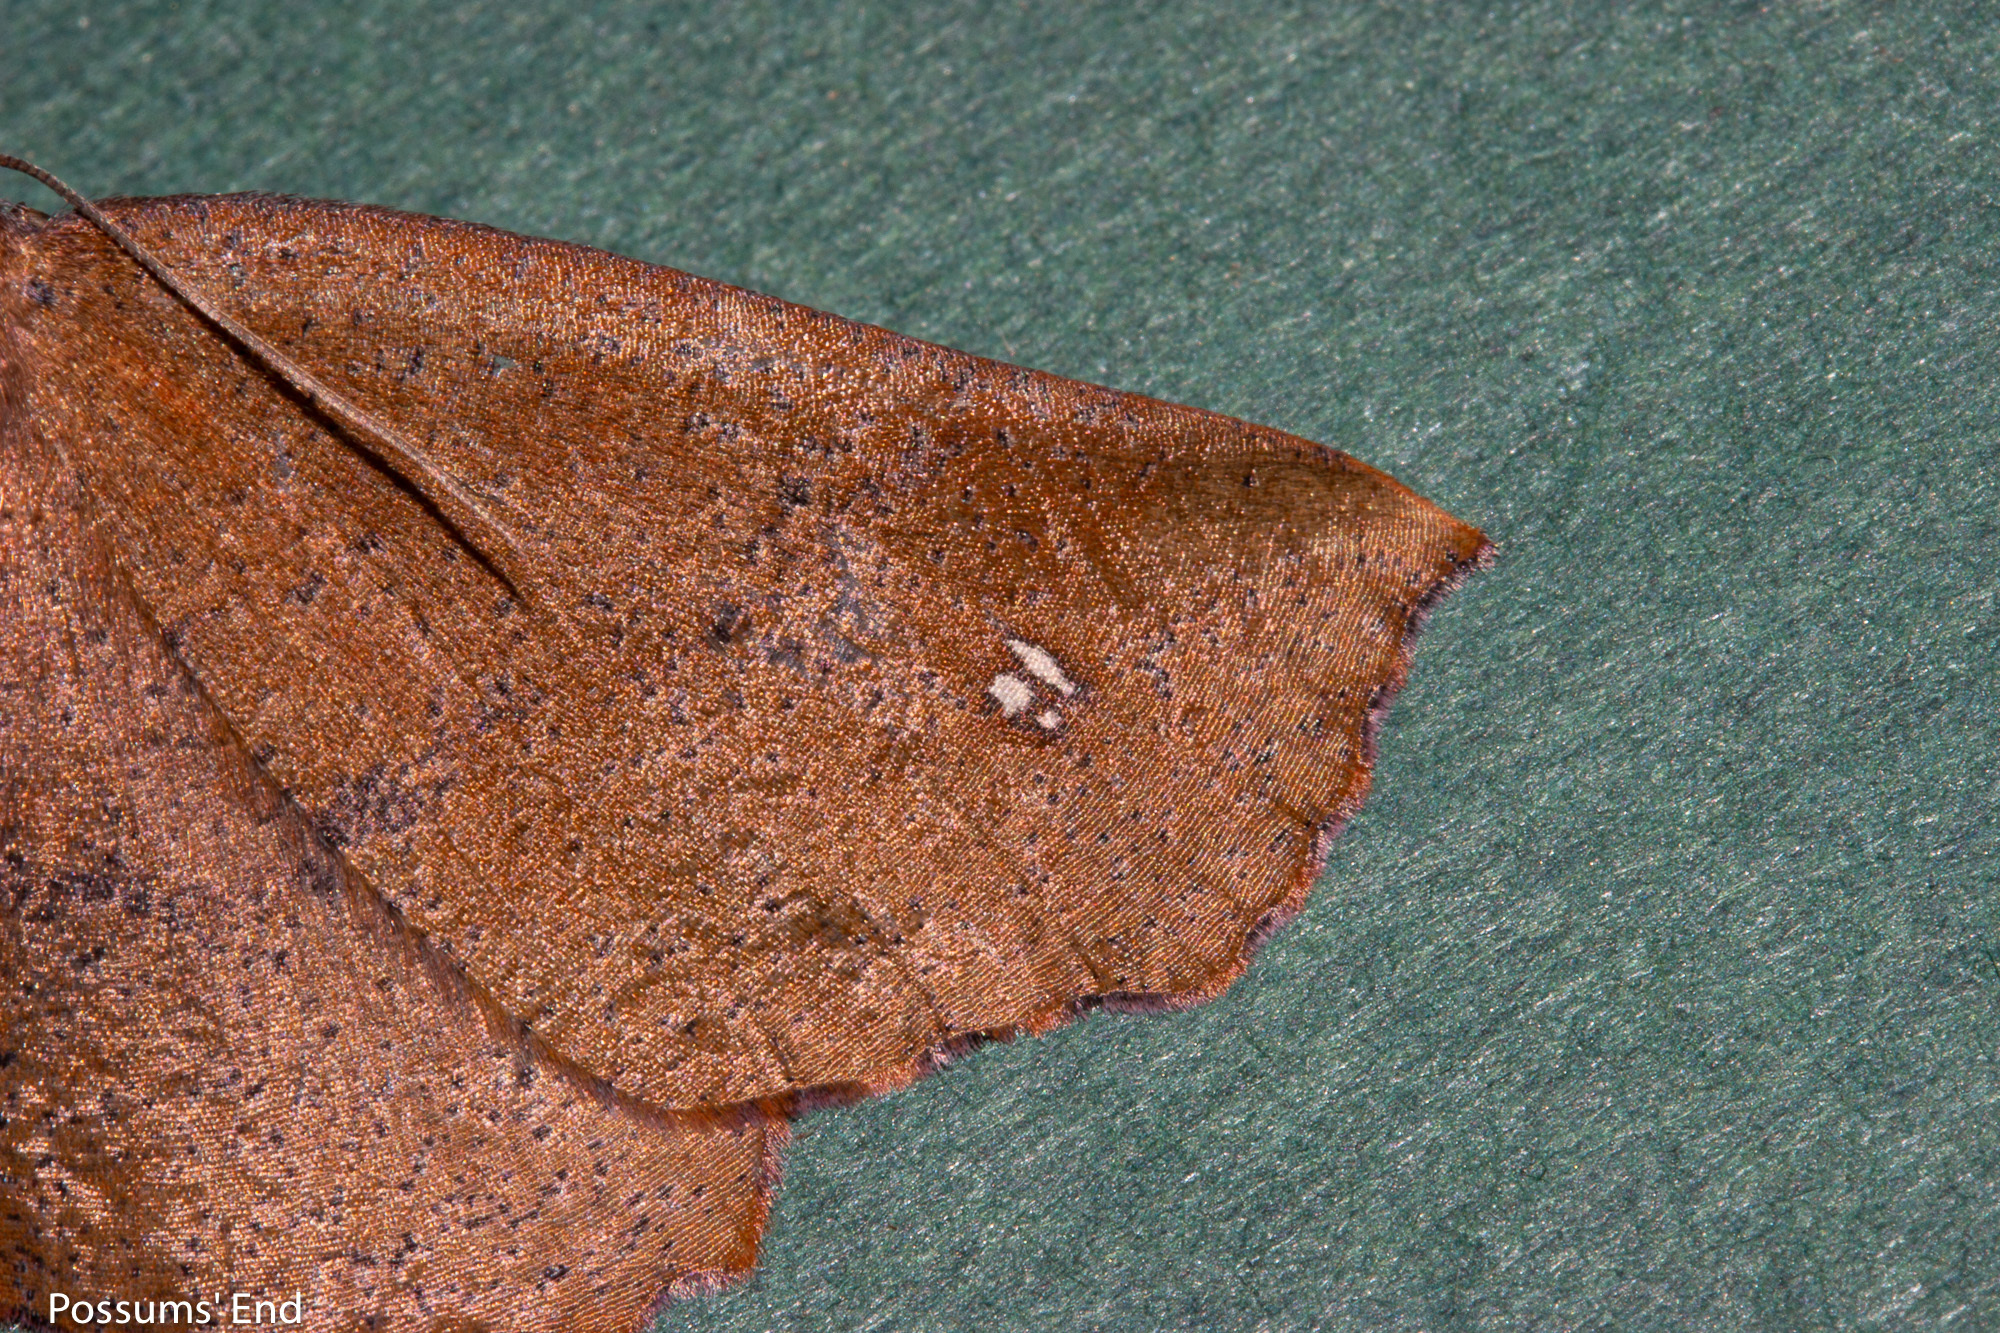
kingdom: Animalia
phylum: Arthropoda
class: Insecta
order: Lepidoptera
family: Geometridae
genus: Xyridacma
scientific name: Xyridacma ustaria
